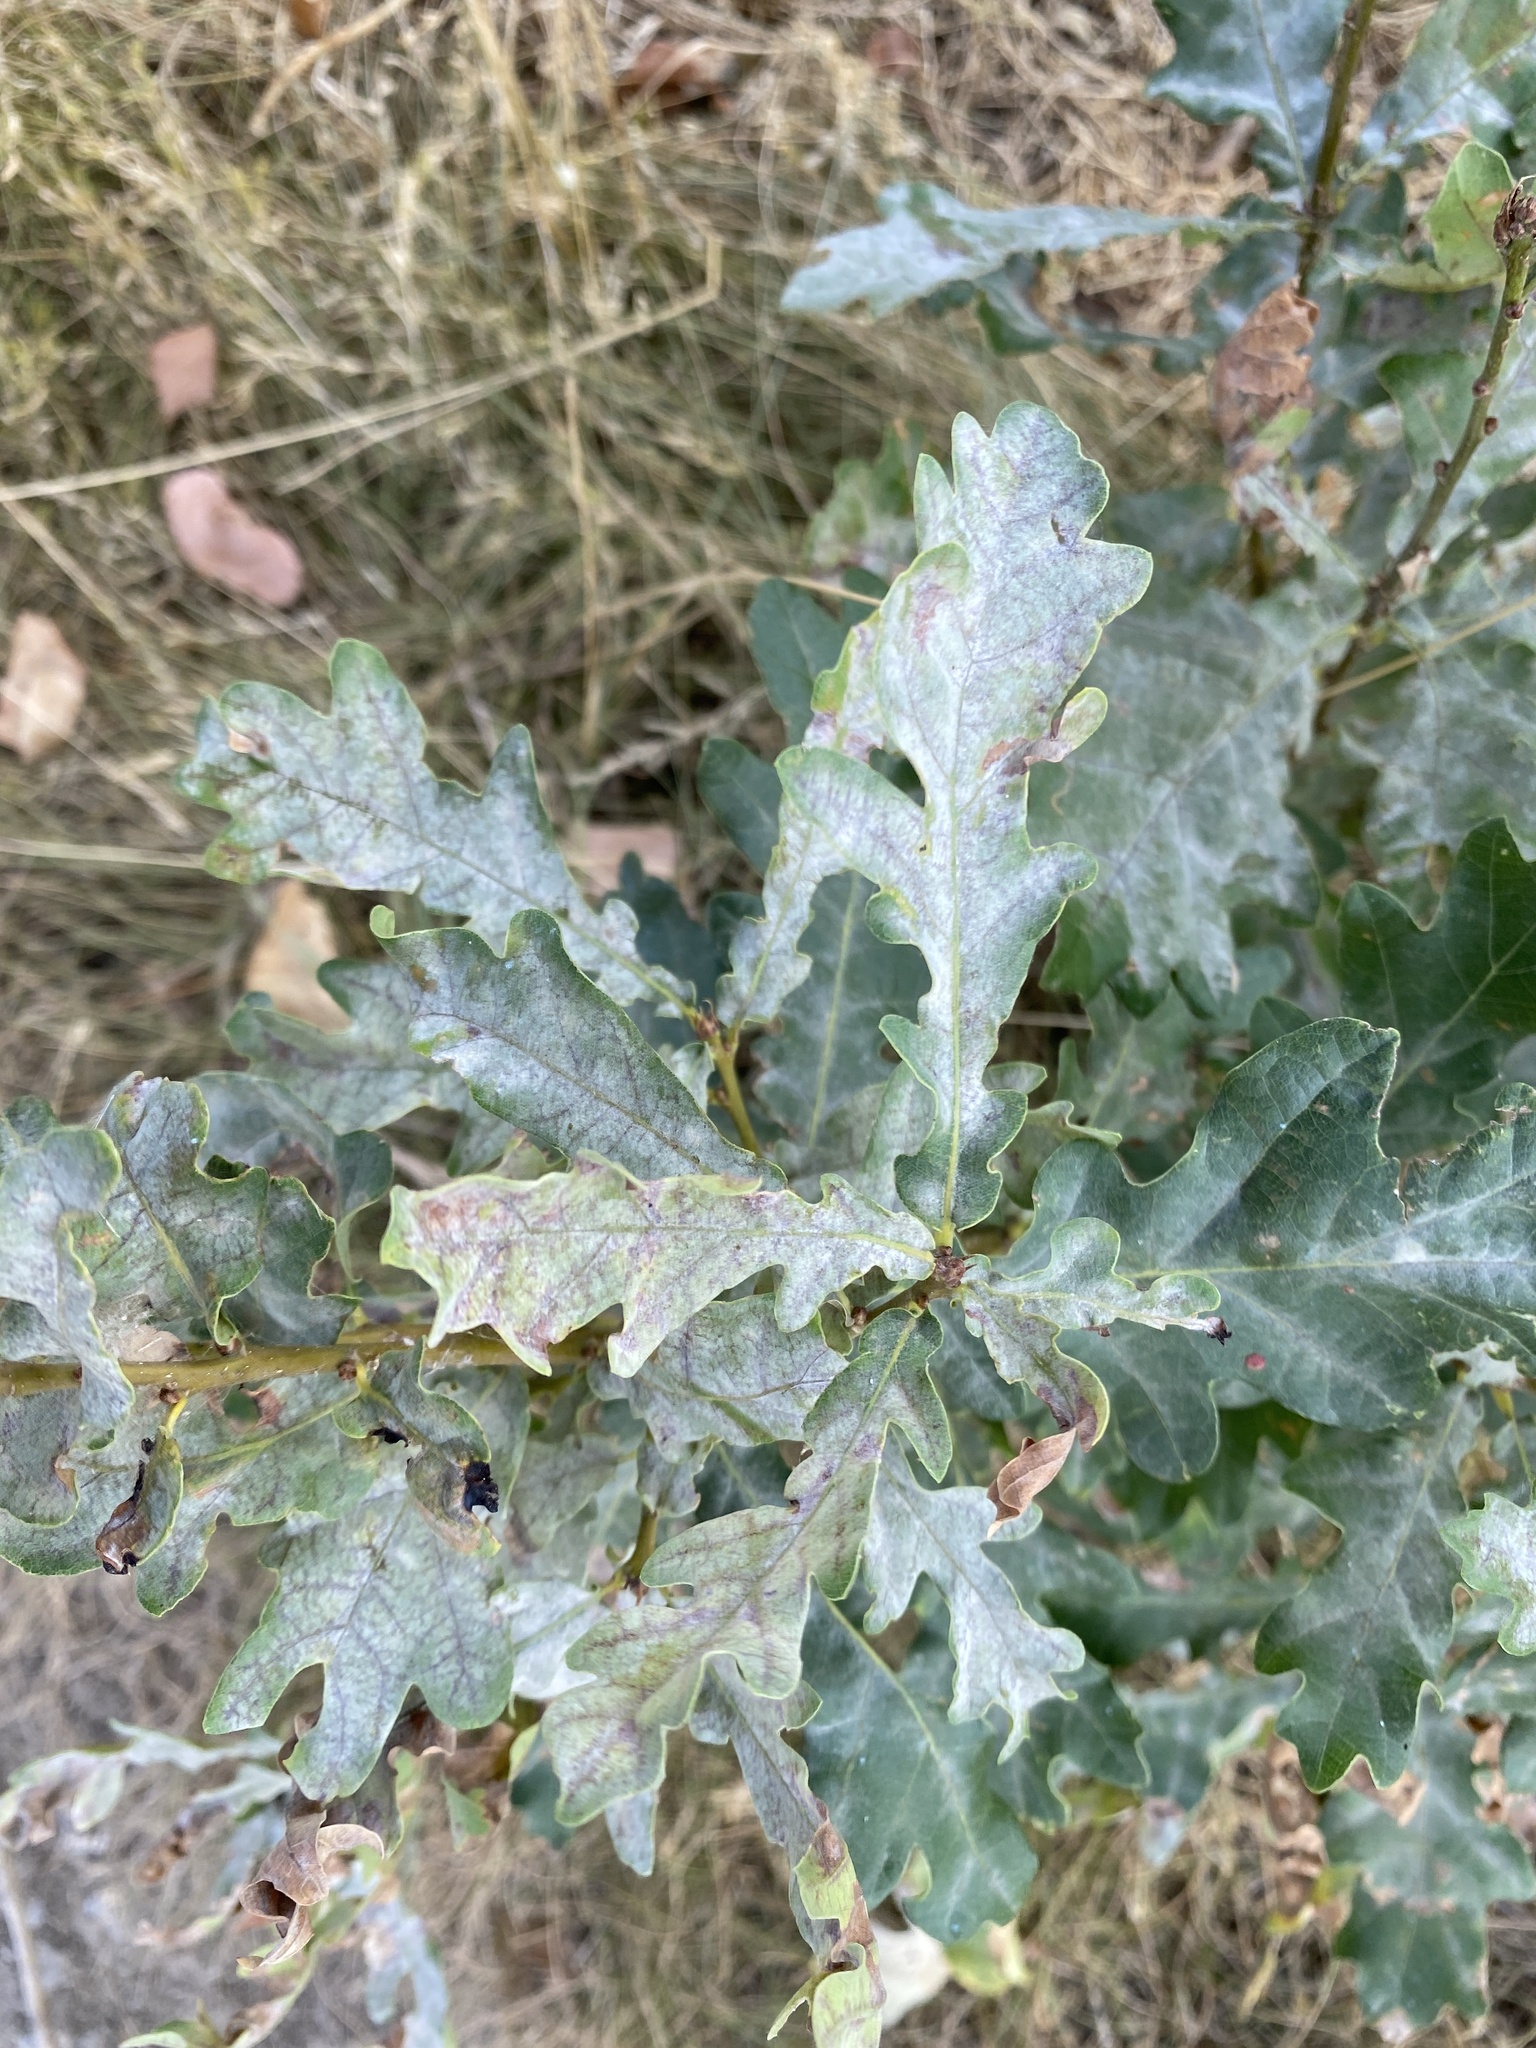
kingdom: Fungi
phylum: Ascomycota
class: Leotiomycetes
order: Helotiales
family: Erysiphaceae
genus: Erysiphe
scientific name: Erysiphe
